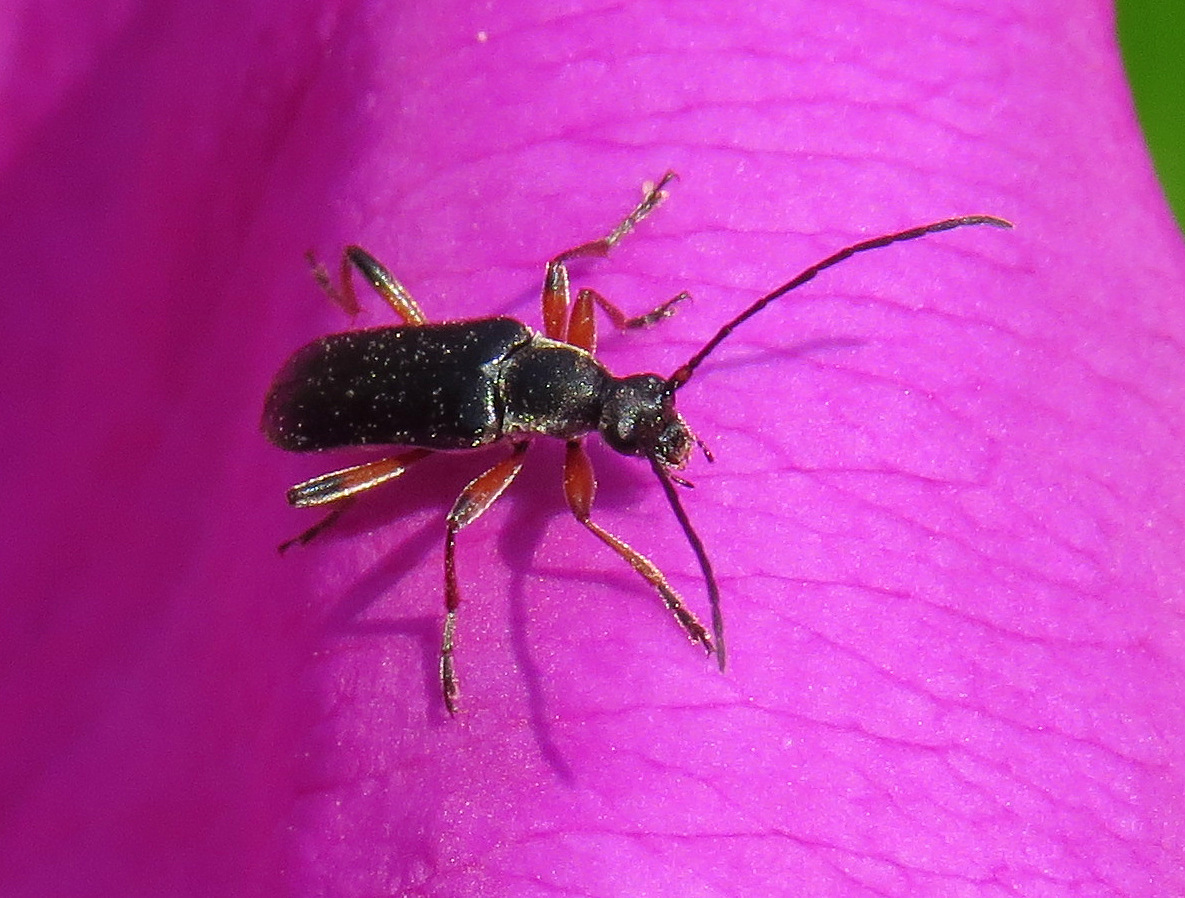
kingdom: Animalia
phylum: Arthropoda
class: Insecta
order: Coleoptera
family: Cerambycidae
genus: Grammoptera
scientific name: Grammoptera subargentata
